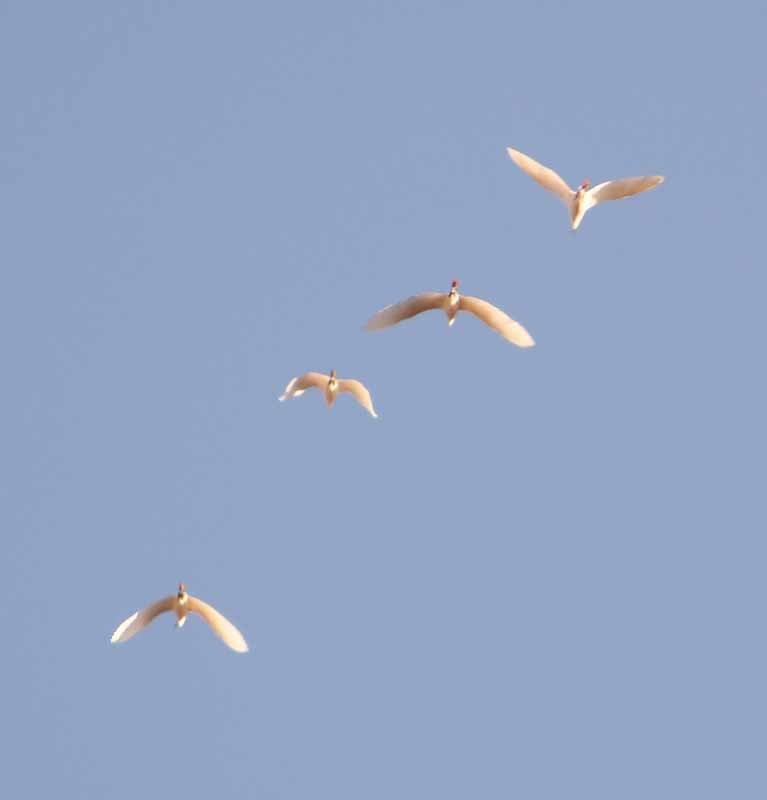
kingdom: Animalia
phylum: Chordata
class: Aves
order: Pelecaniformes
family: Ardeidae
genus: Bubulcus
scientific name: Bubulcus ibis
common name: Cattle egret
